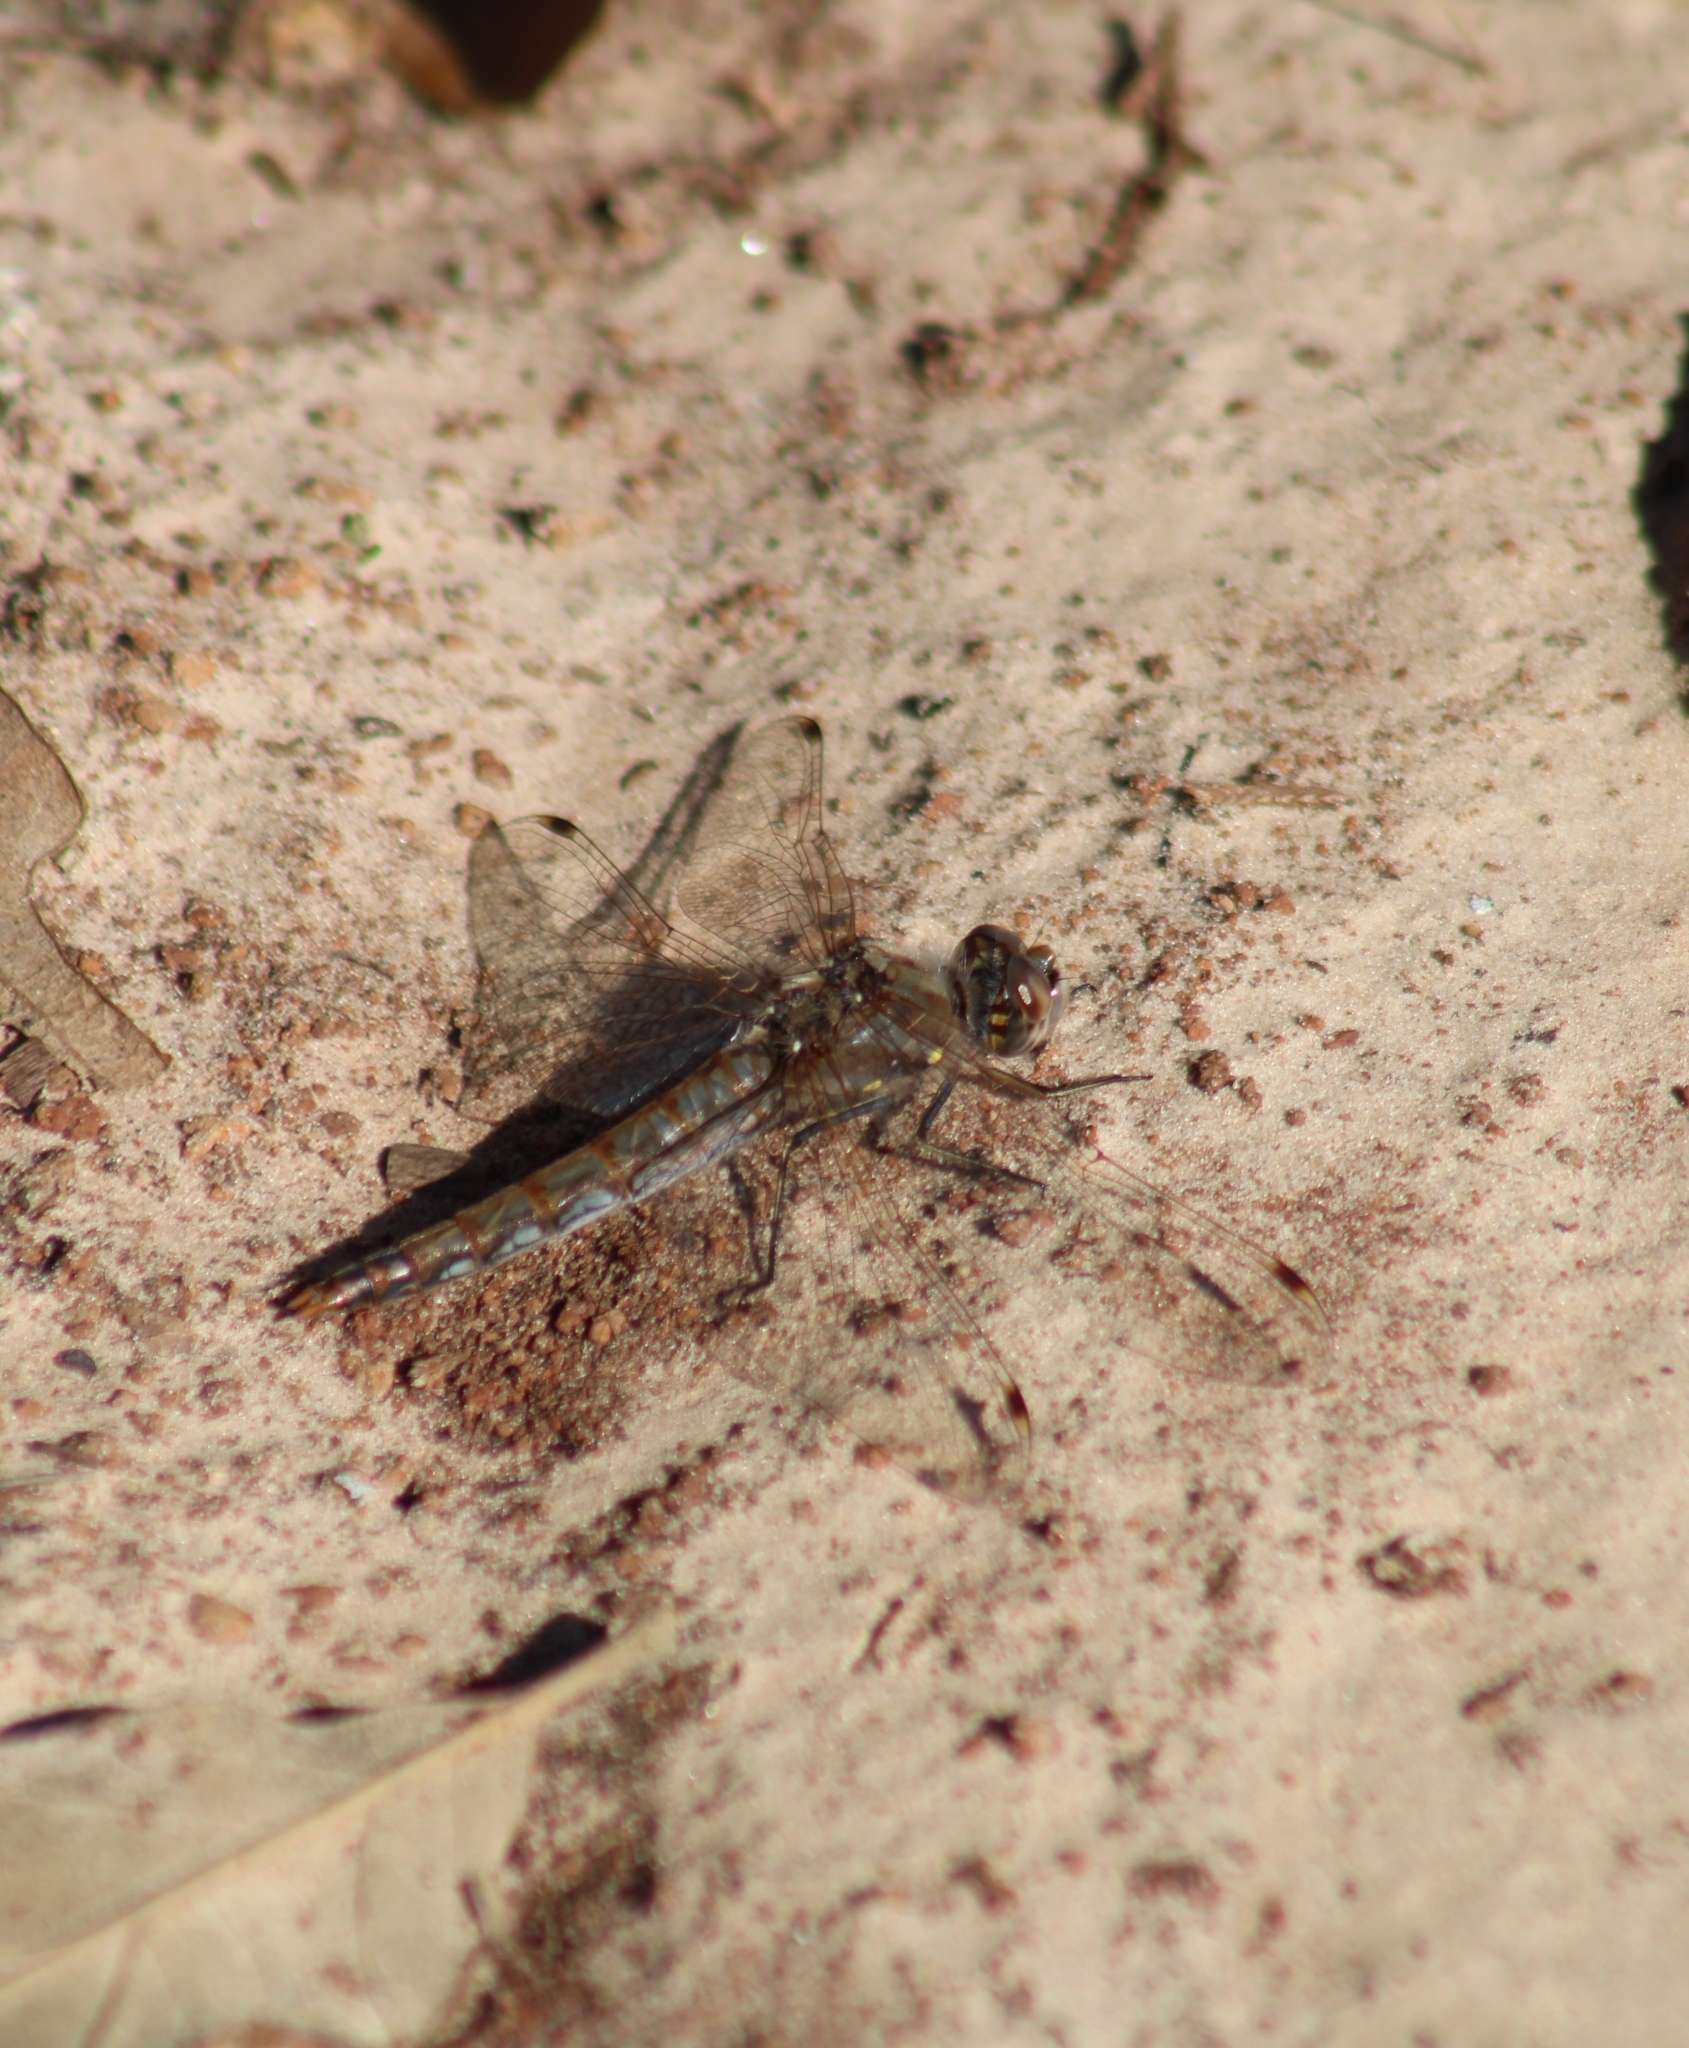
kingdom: Animalia
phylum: Arthropoda
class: Insecta
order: Odonata
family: Libellulidae
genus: Sympetrum
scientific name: Sympetrum corruptum
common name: Variegated meadowhawk
